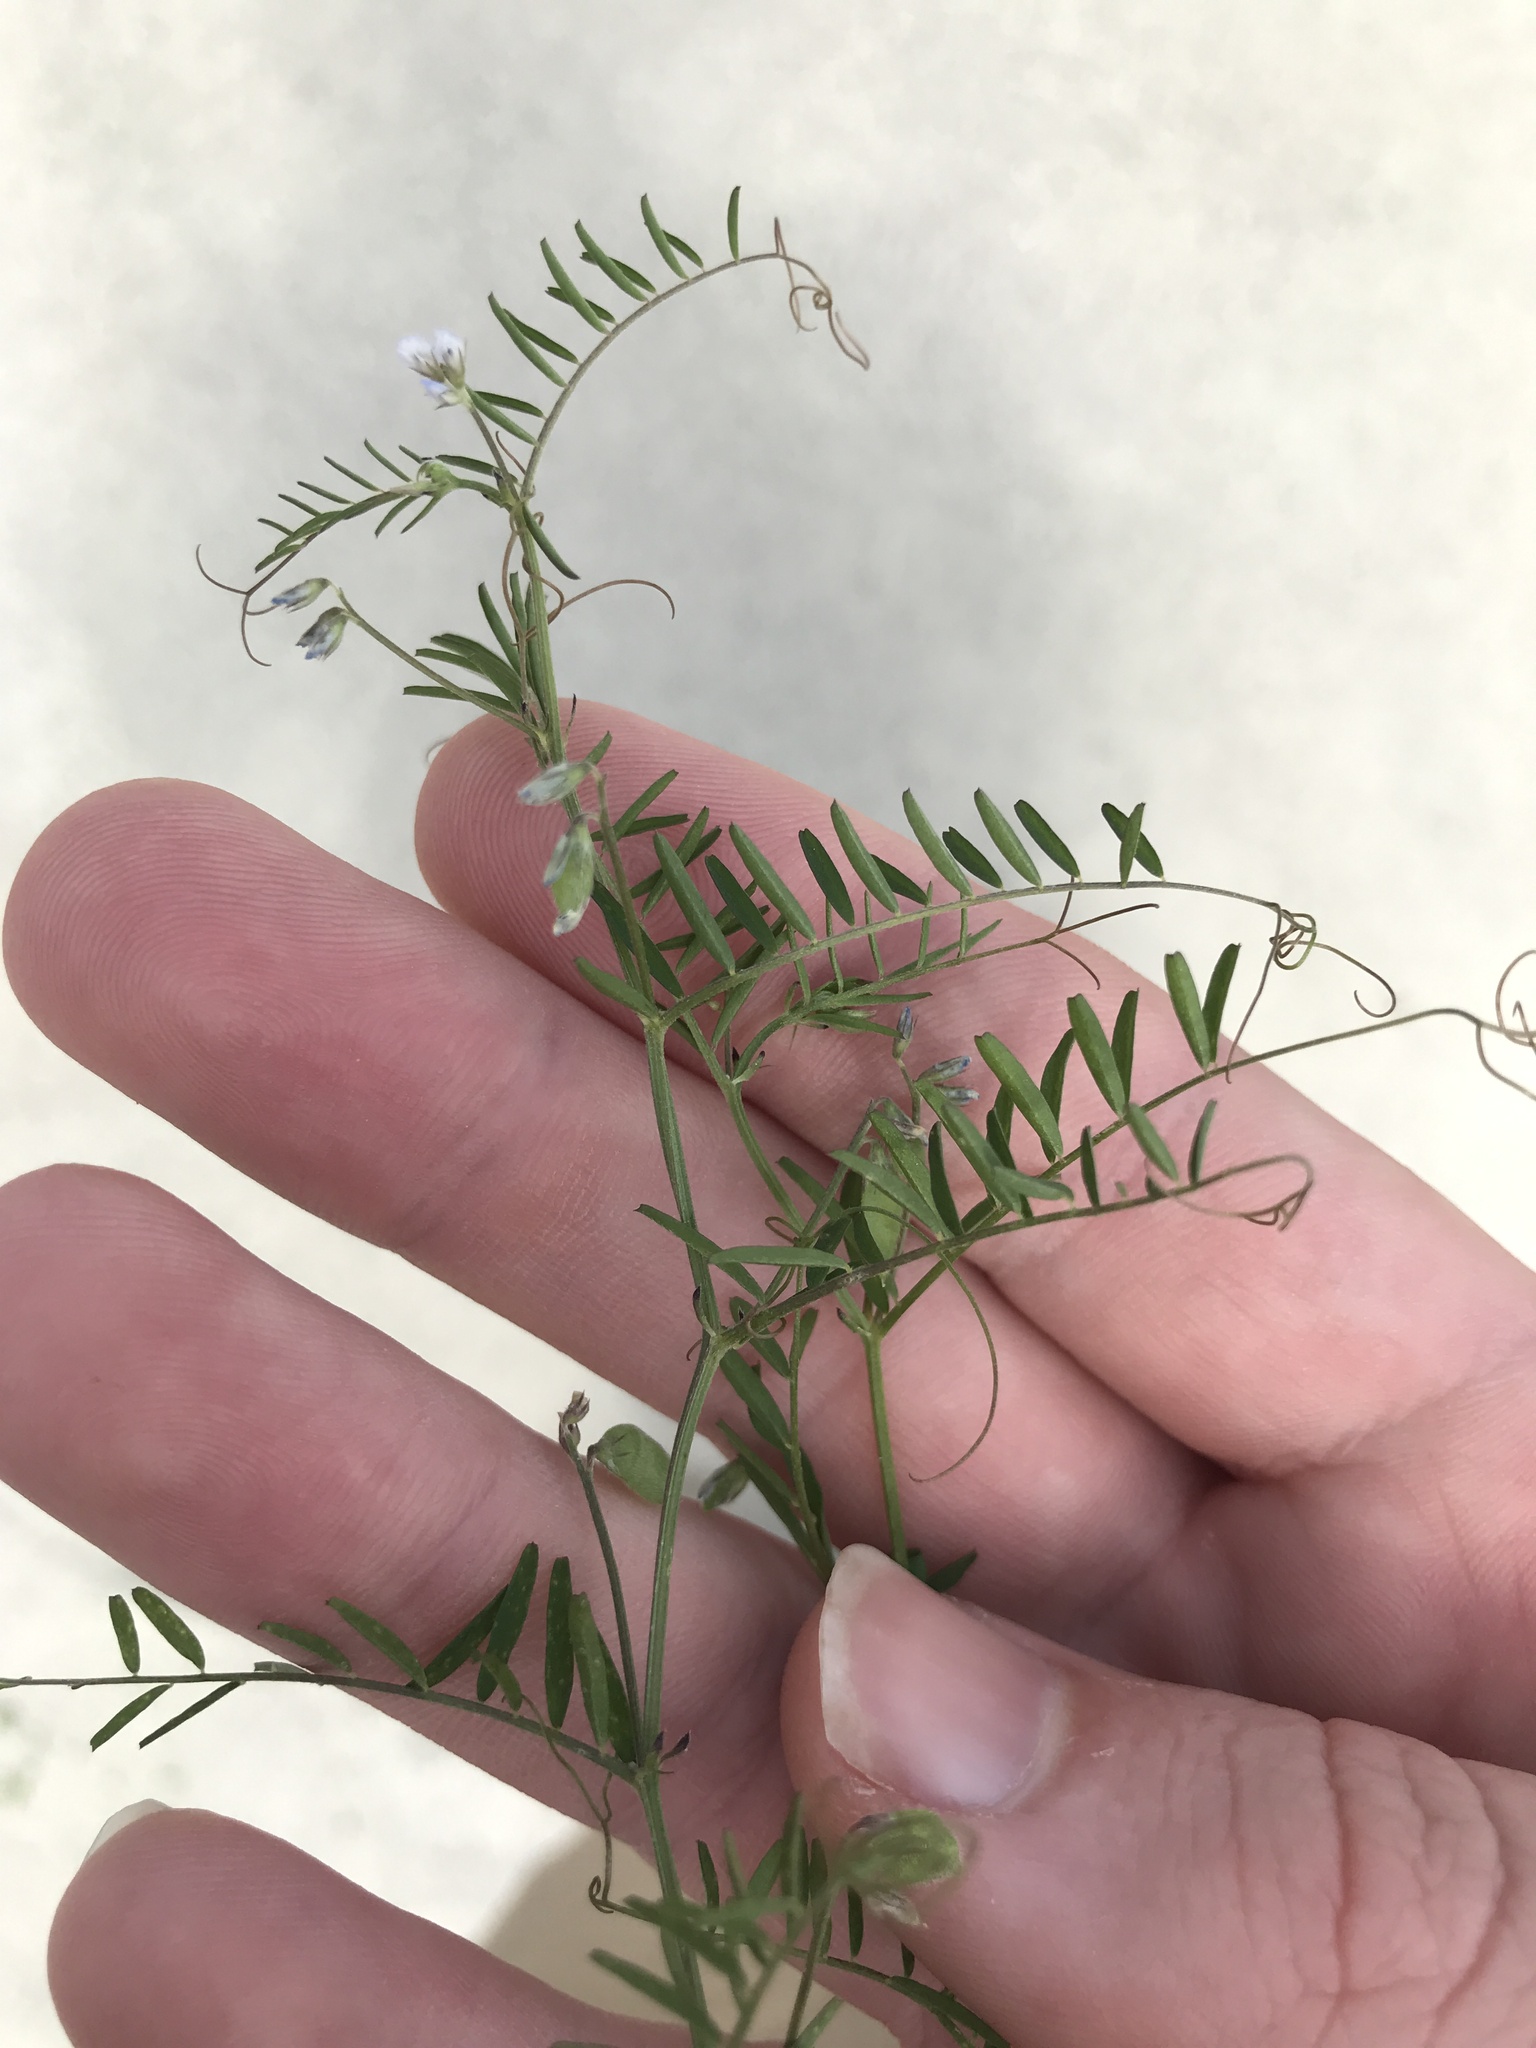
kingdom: Plantae
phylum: Tracheophyta
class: Magnoliopsida
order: Fabales
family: Fabaceae
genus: Vicia
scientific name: Vicia hirsuta
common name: Tiny vetch
